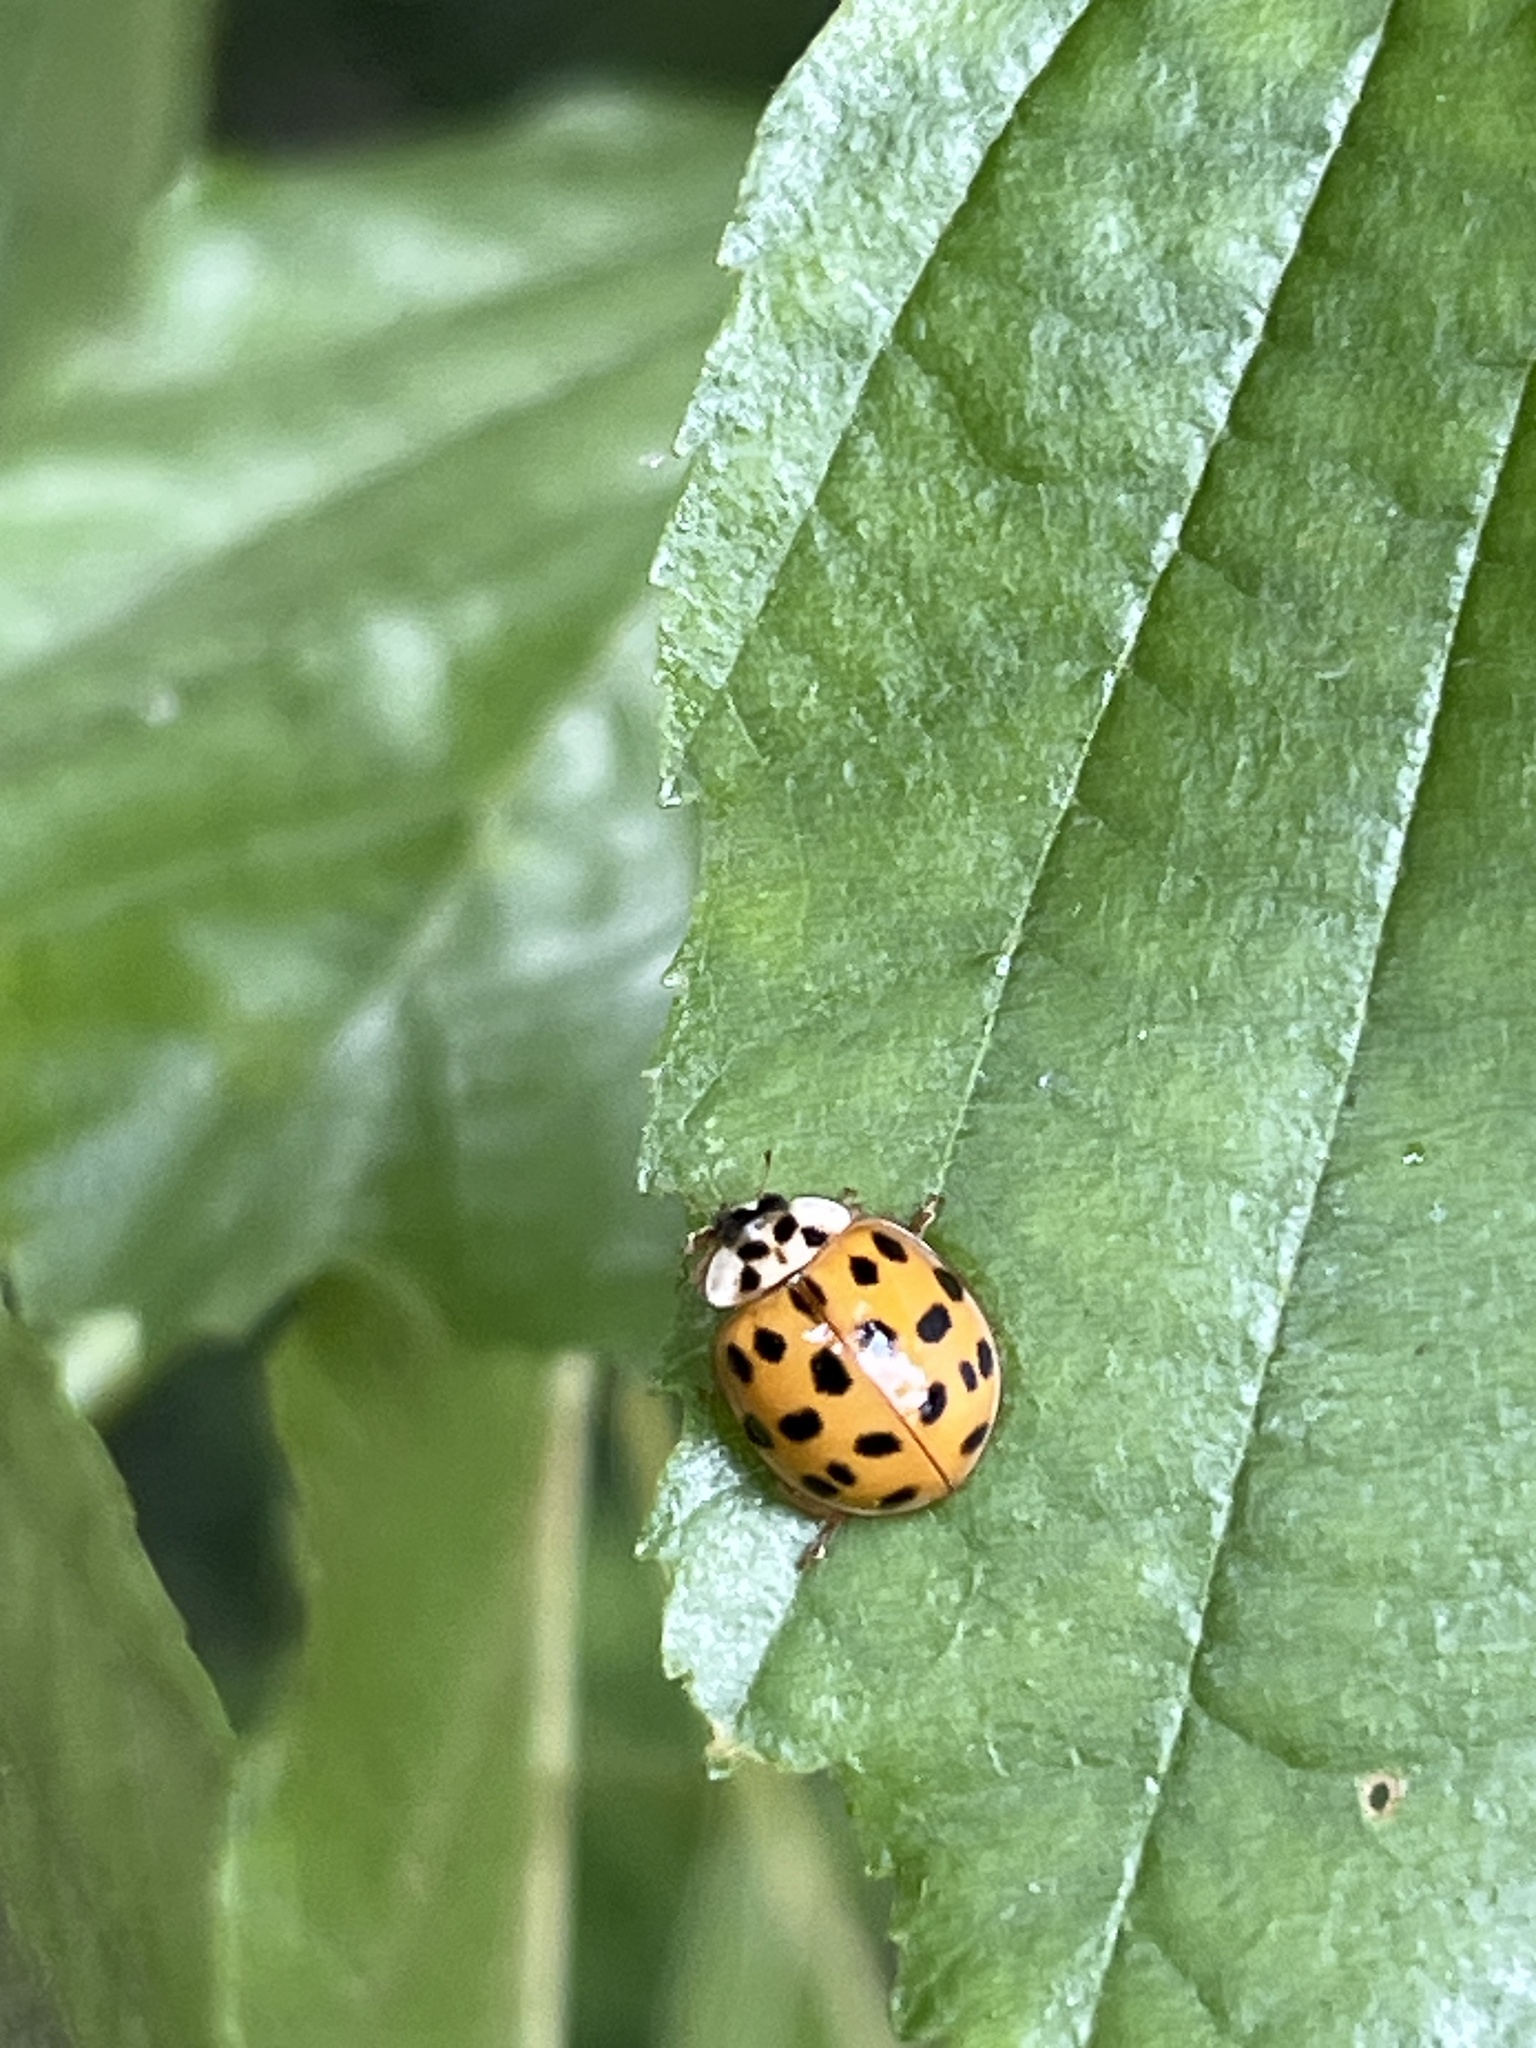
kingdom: Animalia
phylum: Arthropoda
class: Insecta
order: Coleoptera
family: Coccinellidae
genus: Harmonia
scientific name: Harmonia axyridis
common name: Harlequin ladybird
